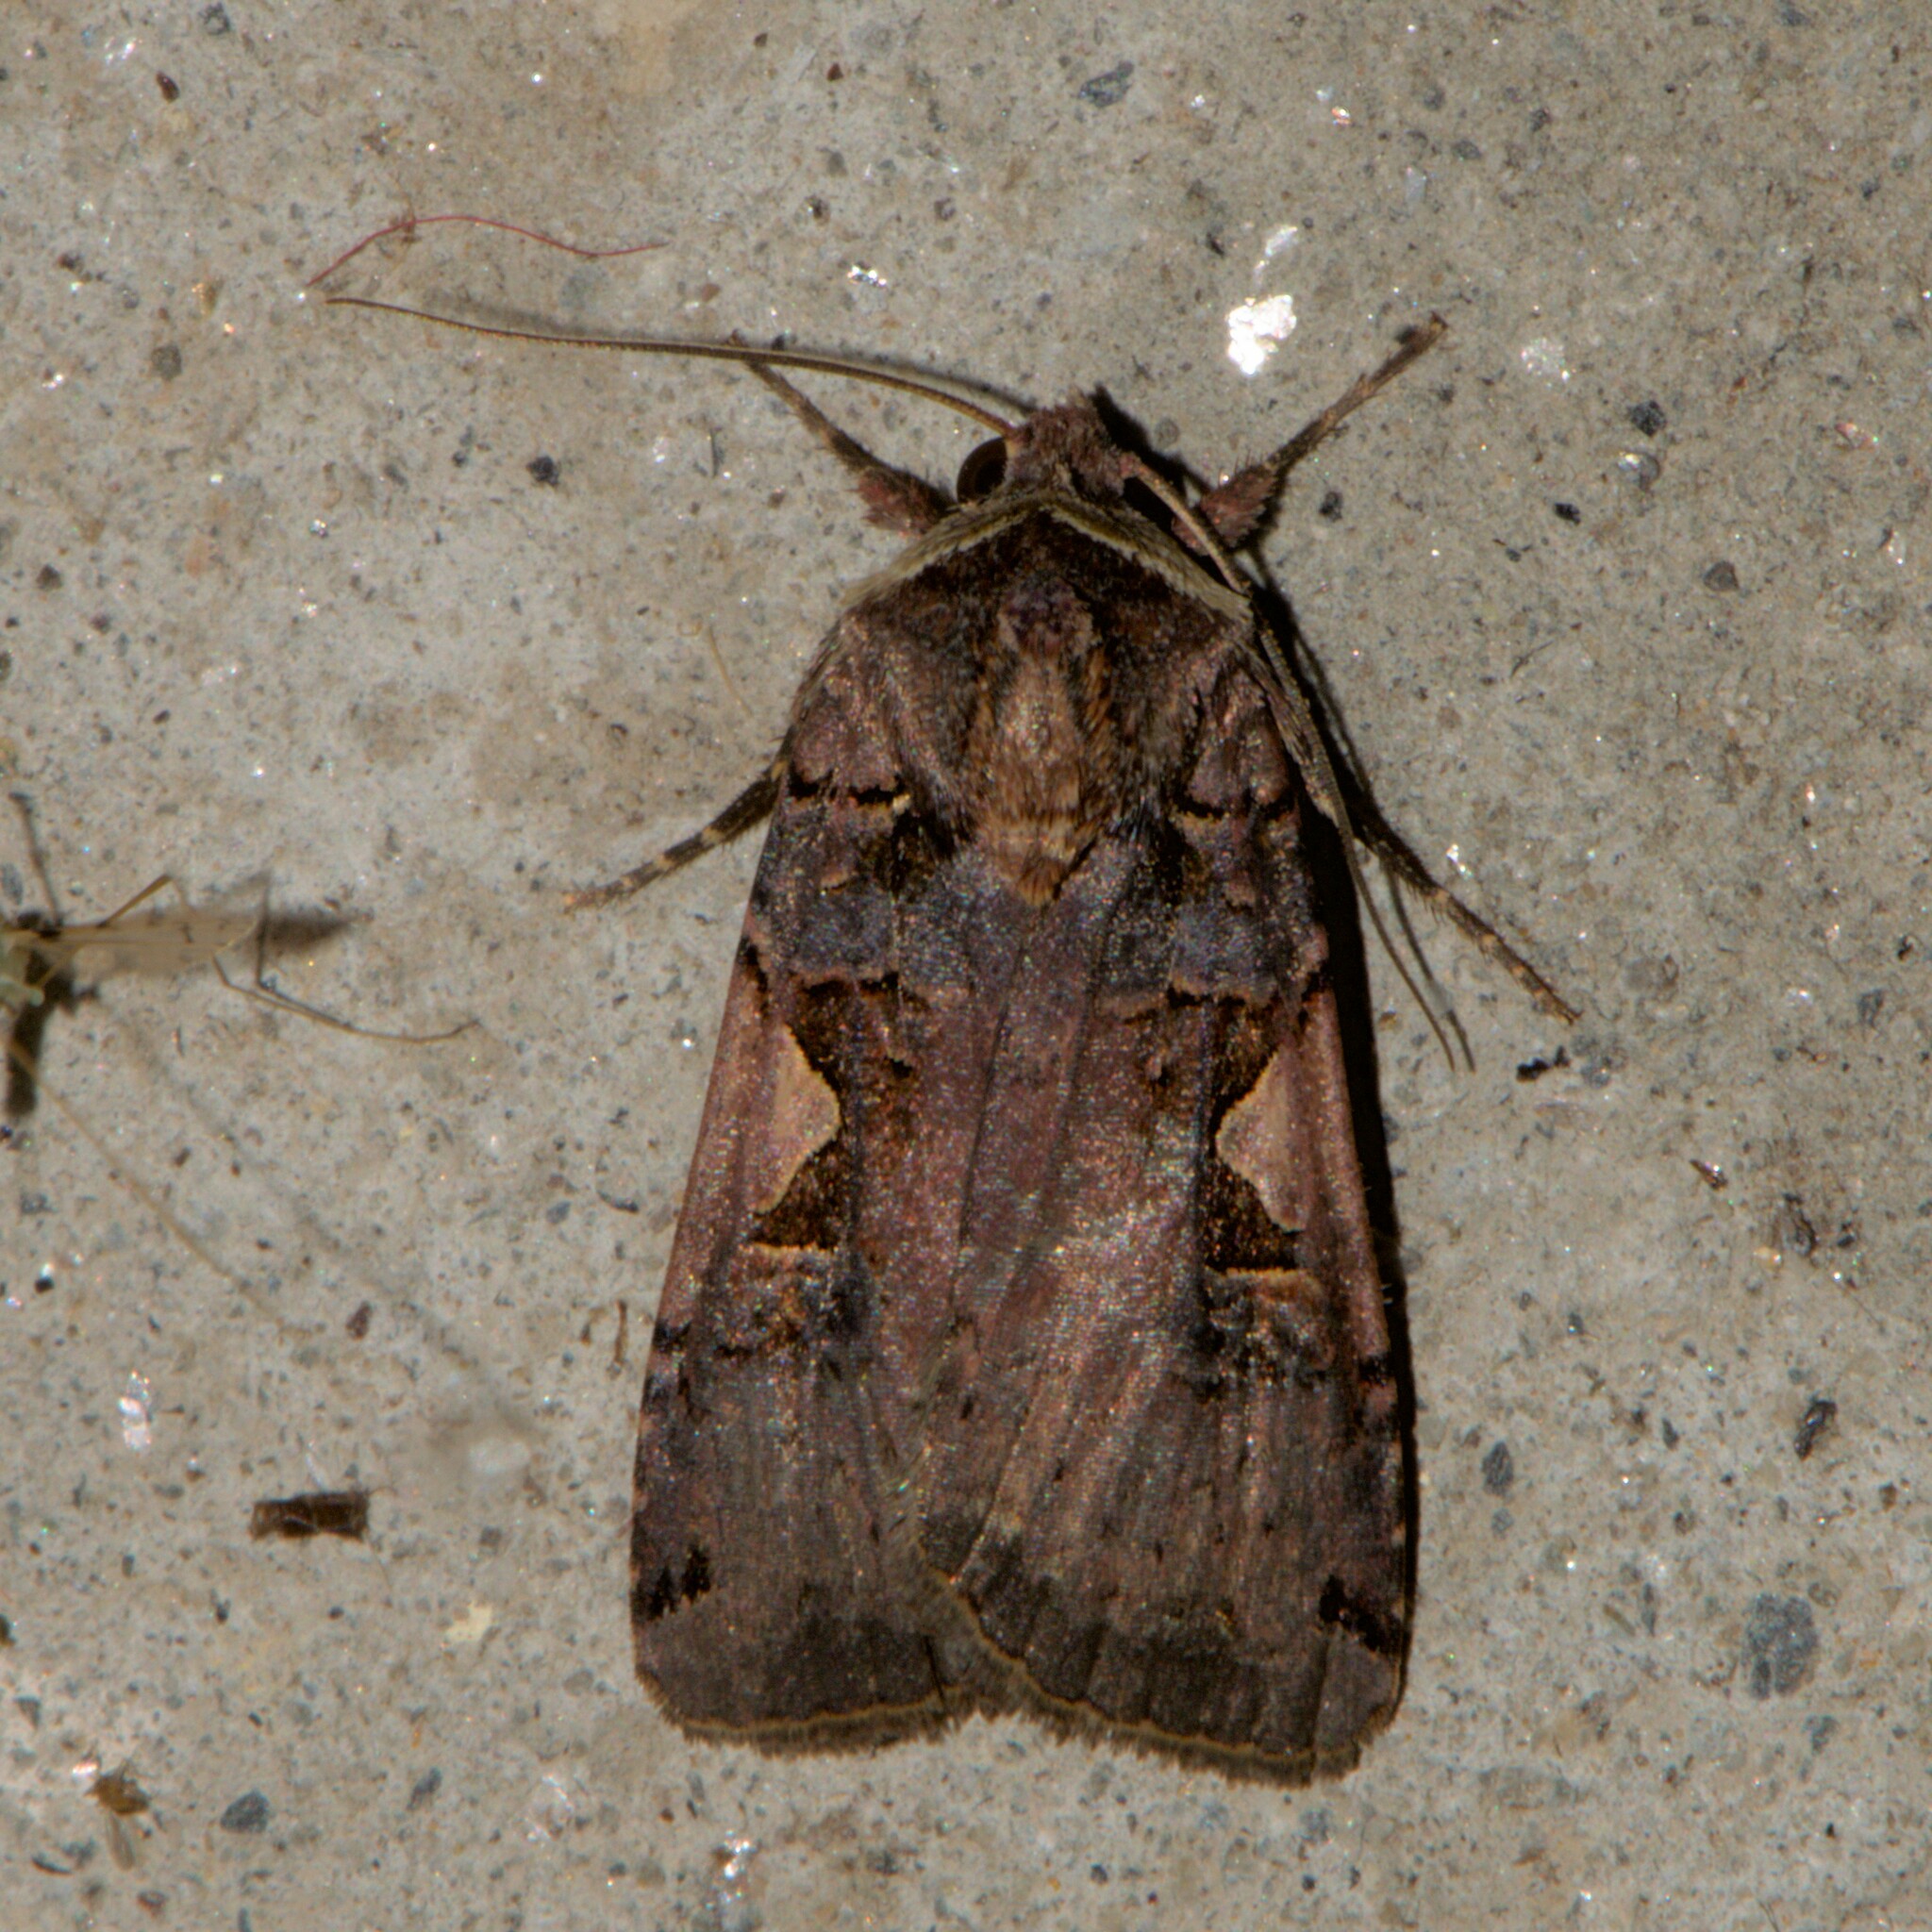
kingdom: Animalia
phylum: Arthropoda
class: Insecta
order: Lepidoptera
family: Noctuidae
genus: Xestia
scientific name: Xestia c-nigrum
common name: Setaceous hebrew character
